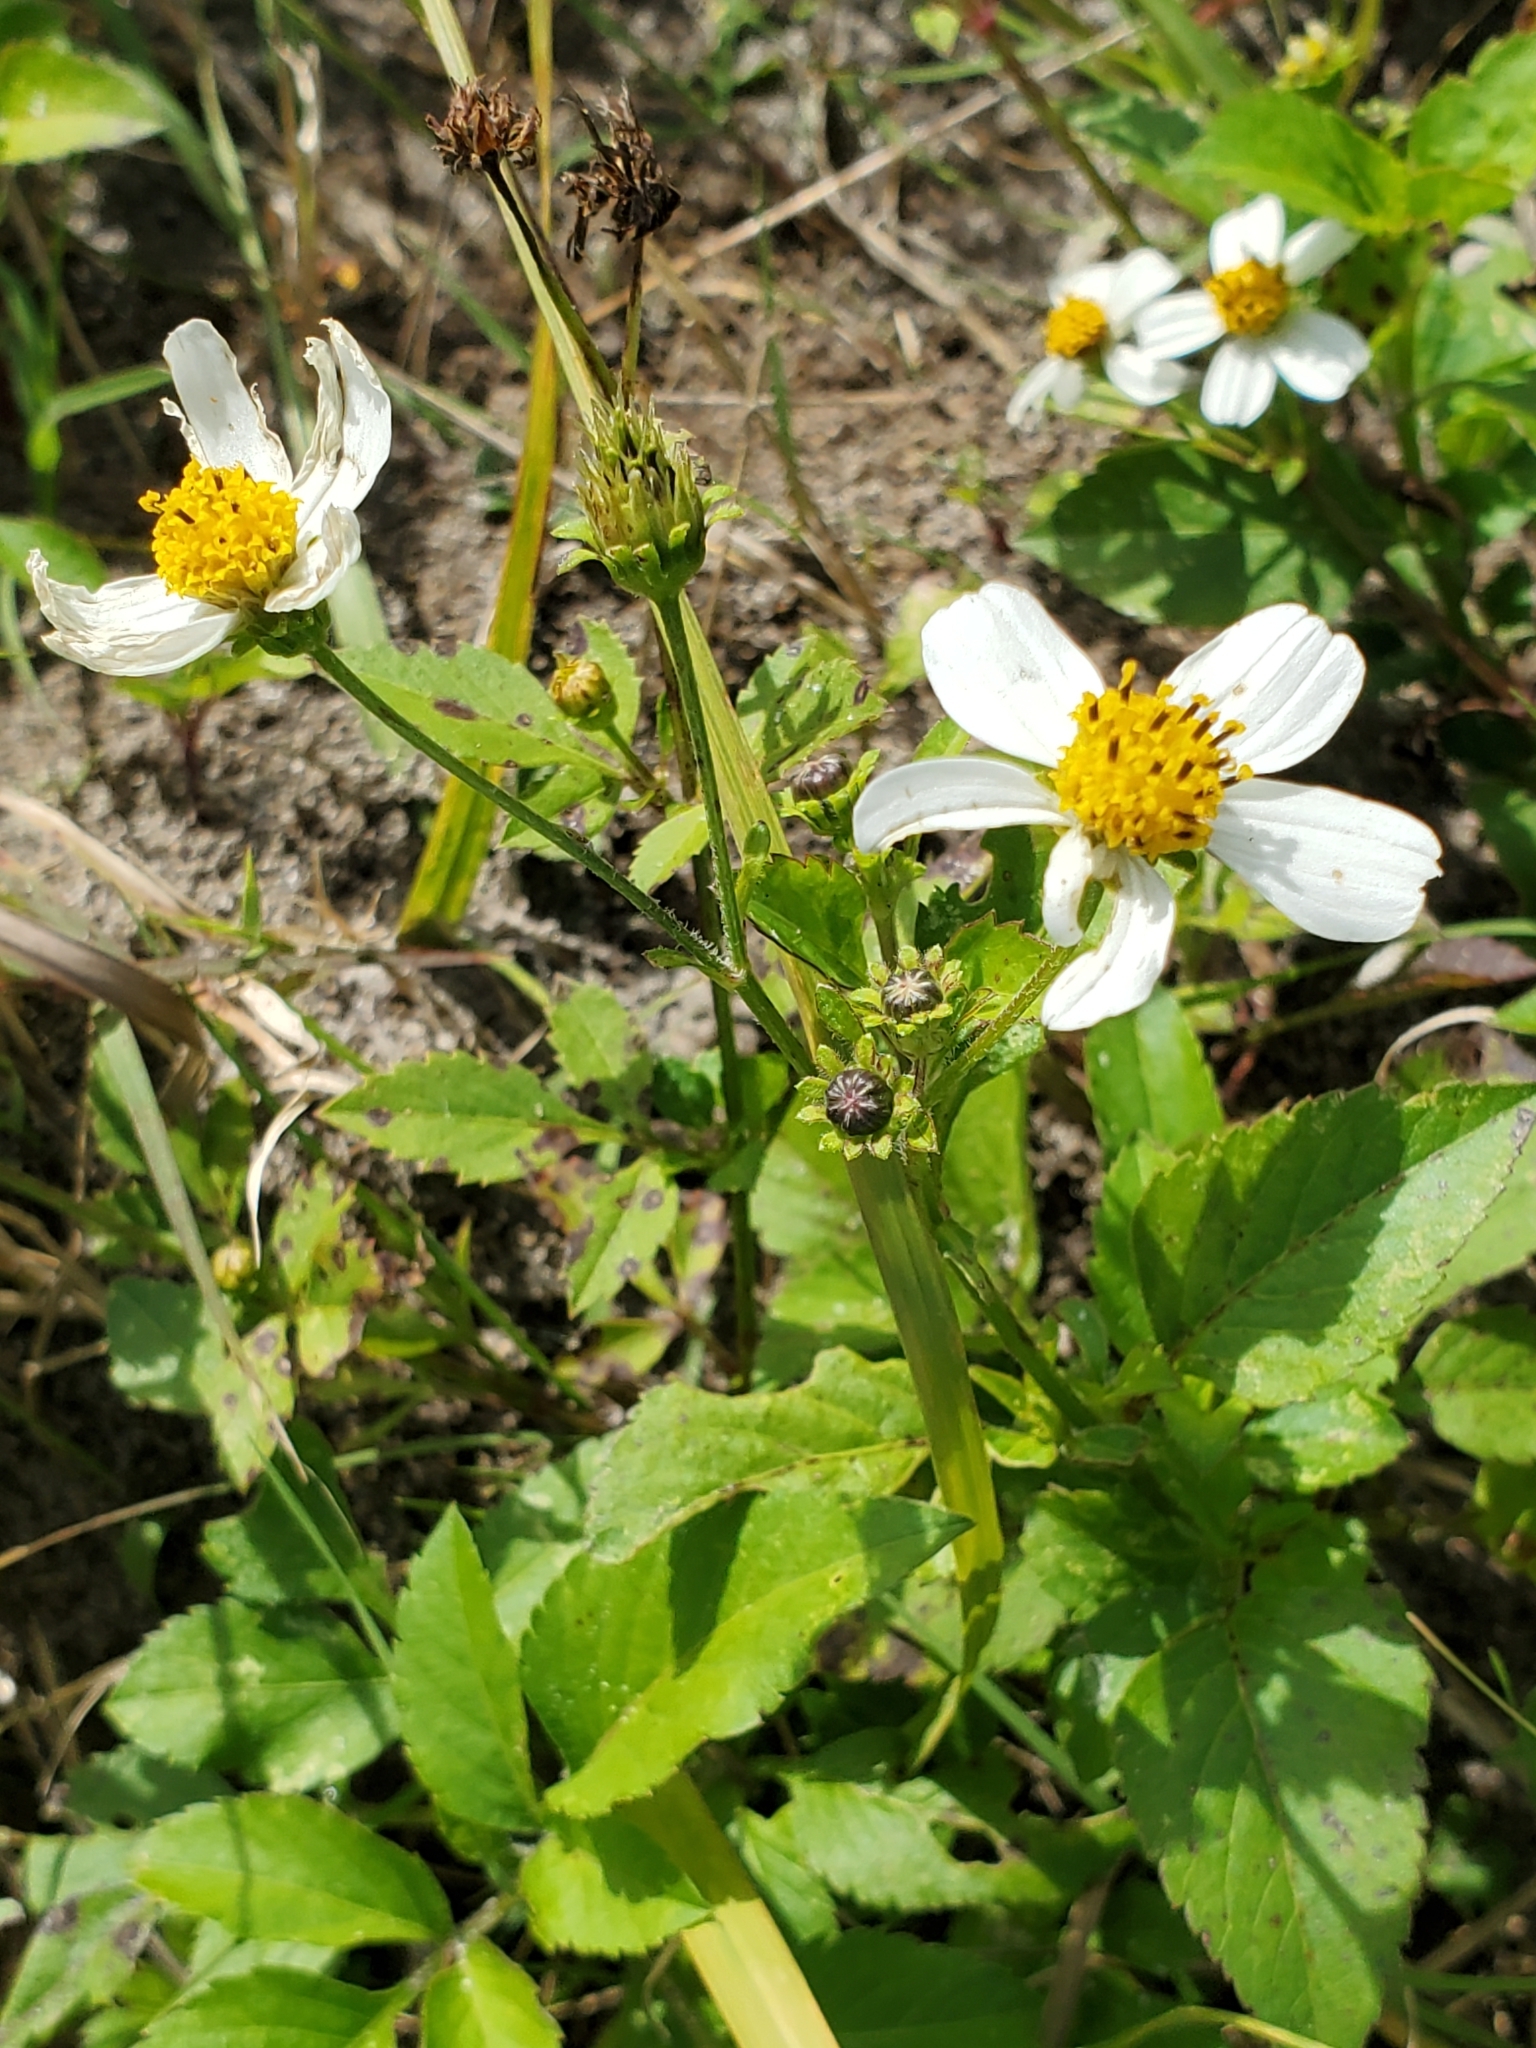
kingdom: Plantae
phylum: Tracheophyta
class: Magnoliopsida
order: Asterales
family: Asteraceae
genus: Bidens
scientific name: Bidens alba
